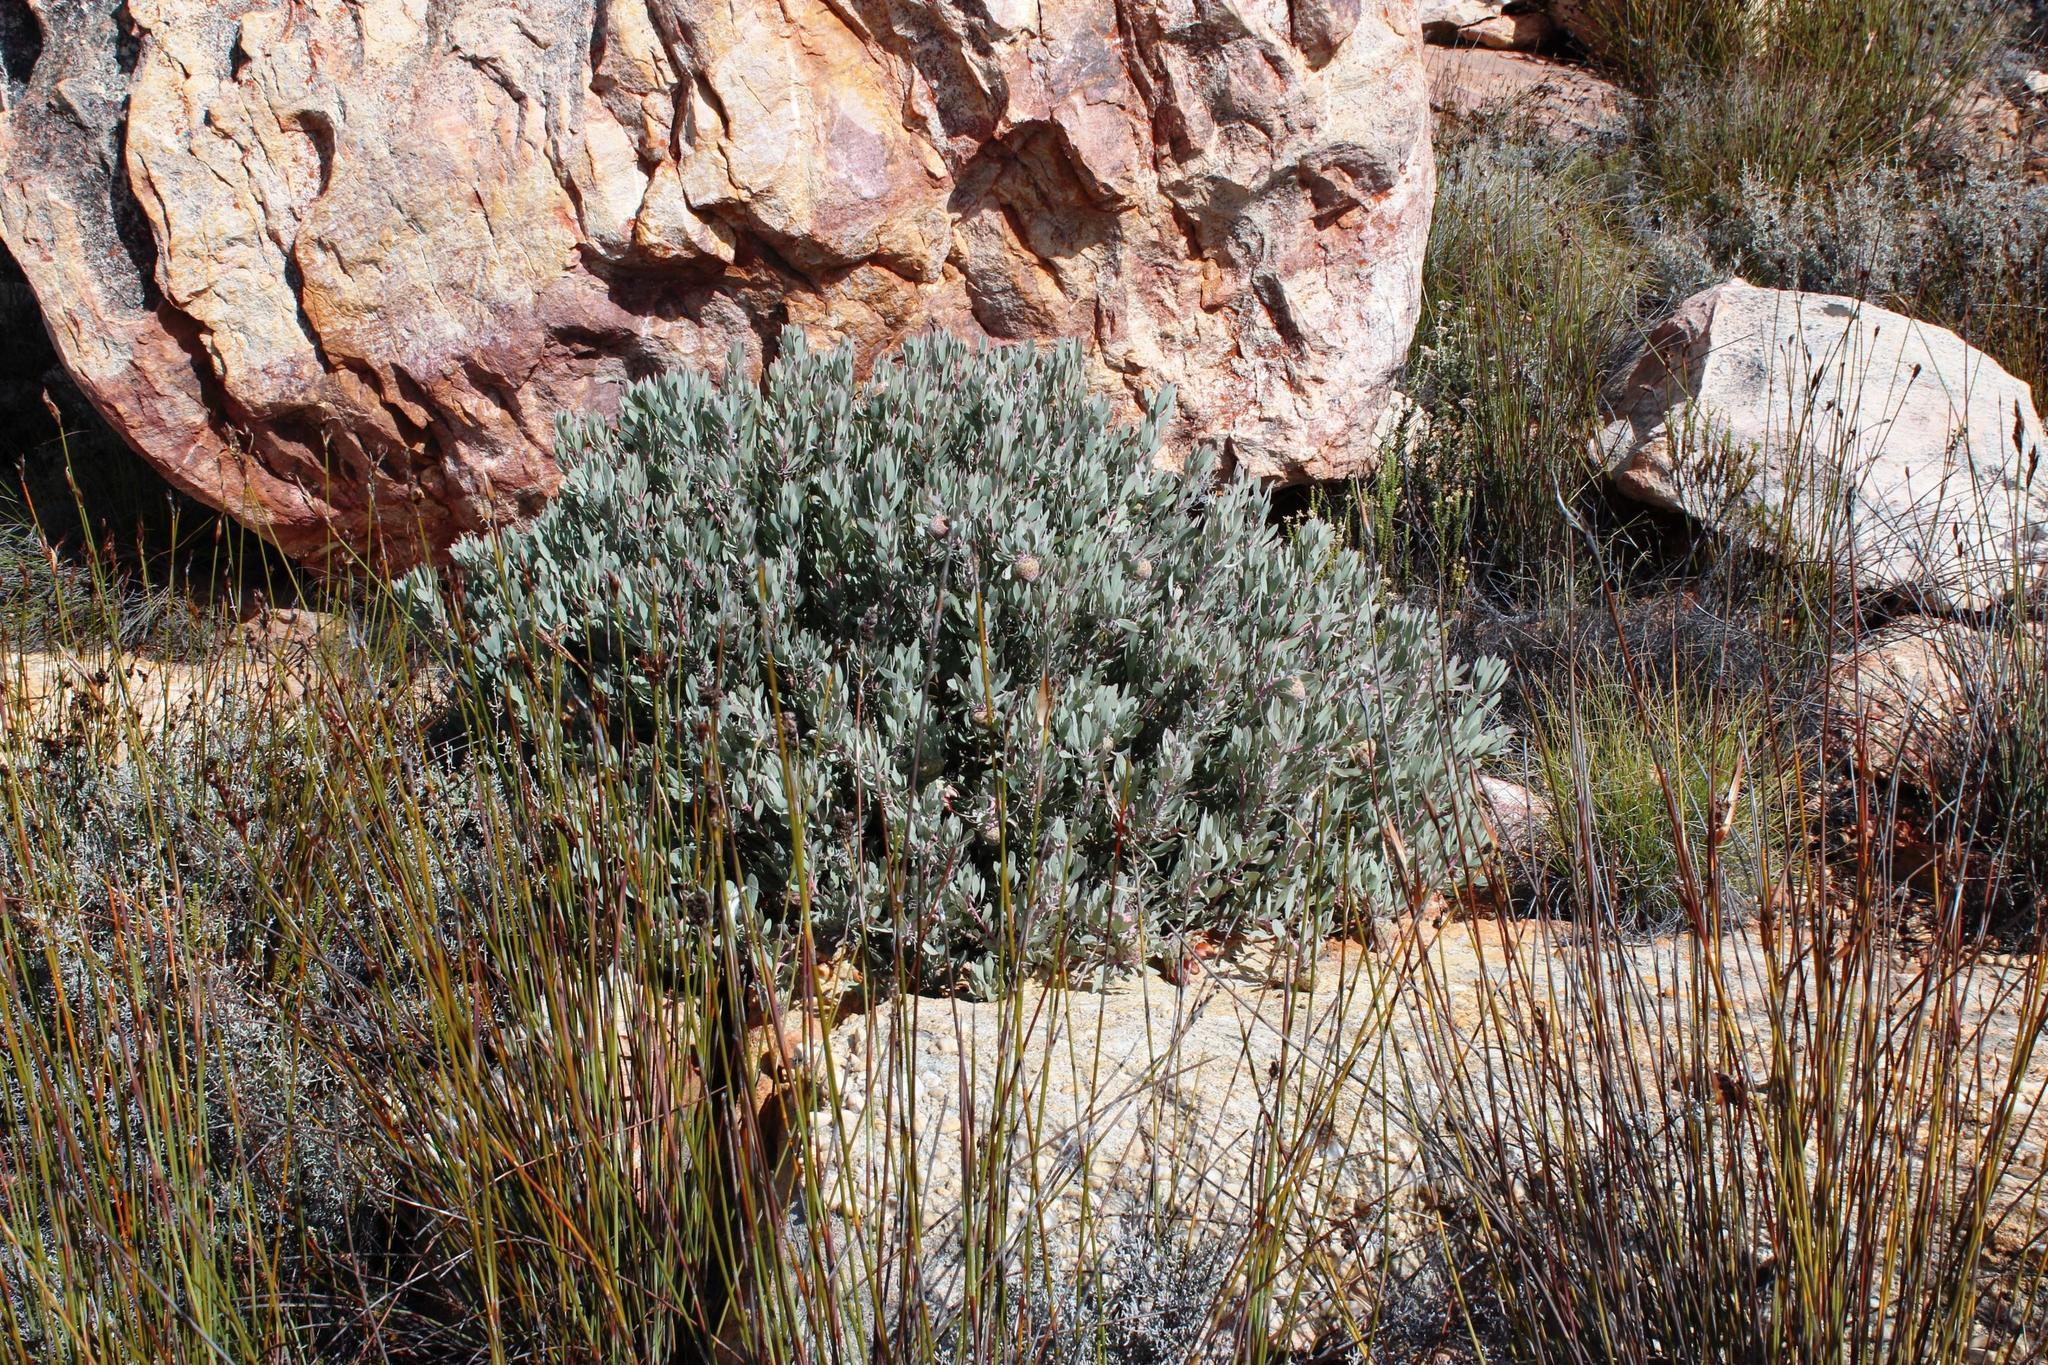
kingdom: Plantae
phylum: Tracheophyta
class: Magnoliopsida
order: Proteales
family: Proteaceae
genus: Protea
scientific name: Protea pendula
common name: Nodding sugarbush
